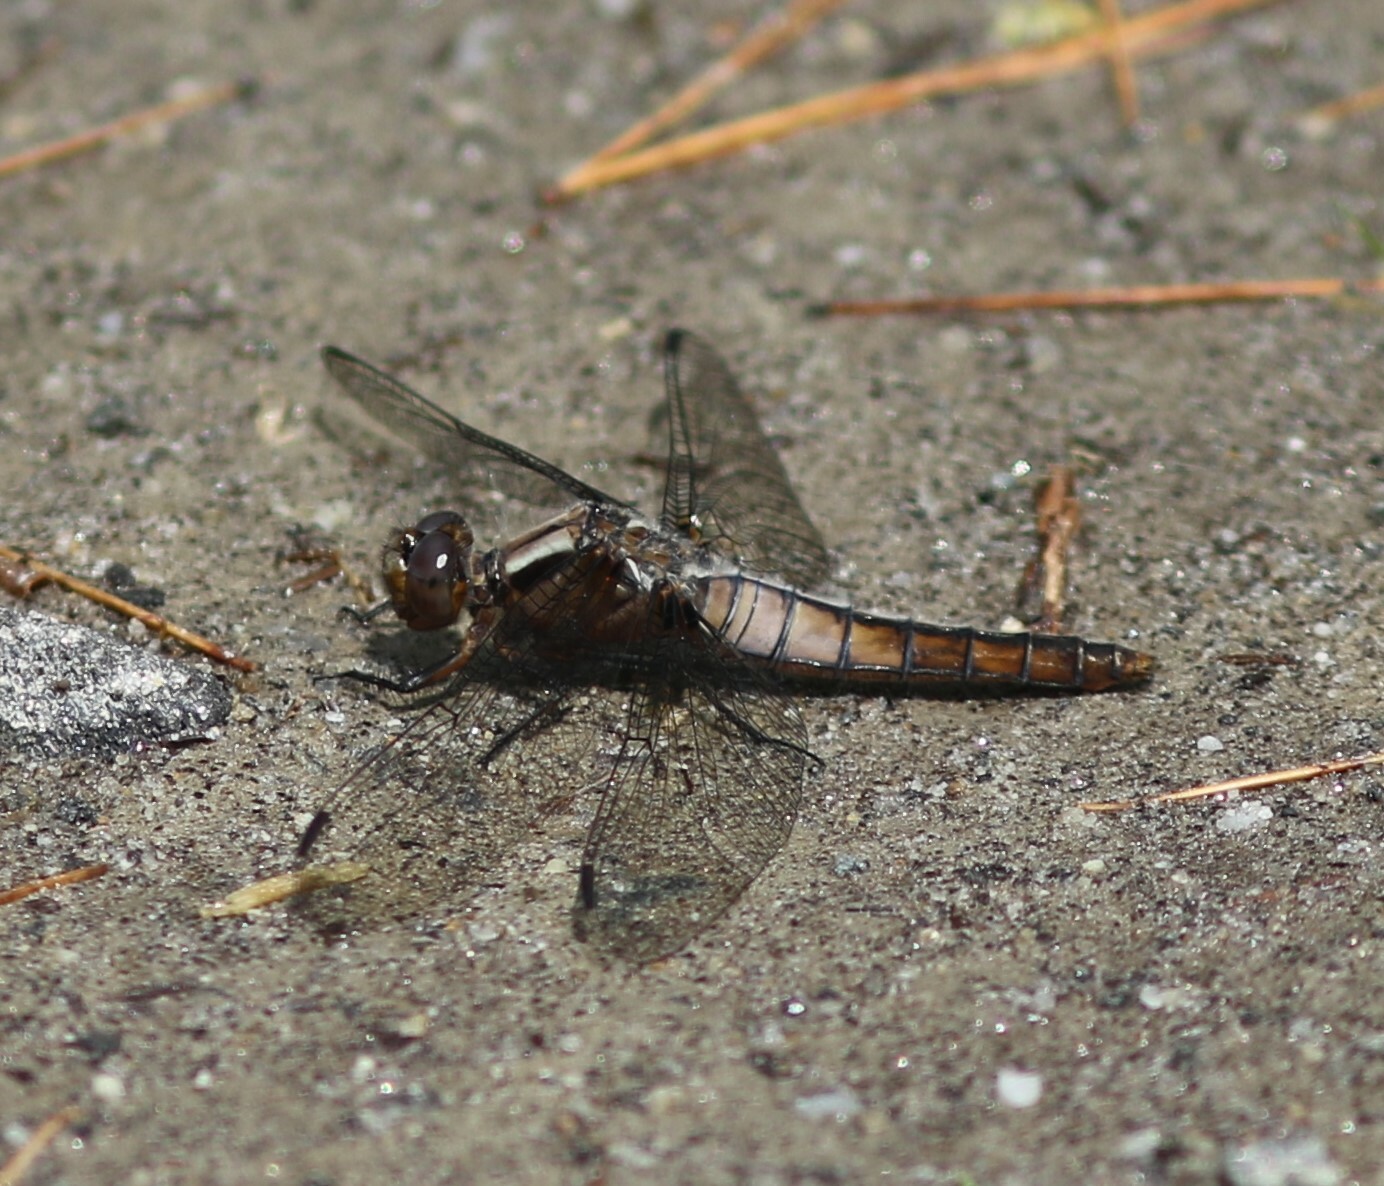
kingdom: Animalia
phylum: Arthropoda
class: Insecta
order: Odonata
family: Libellulidae
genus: Ladona
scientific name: Ladona julia
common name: Chalk-fronted corporal
